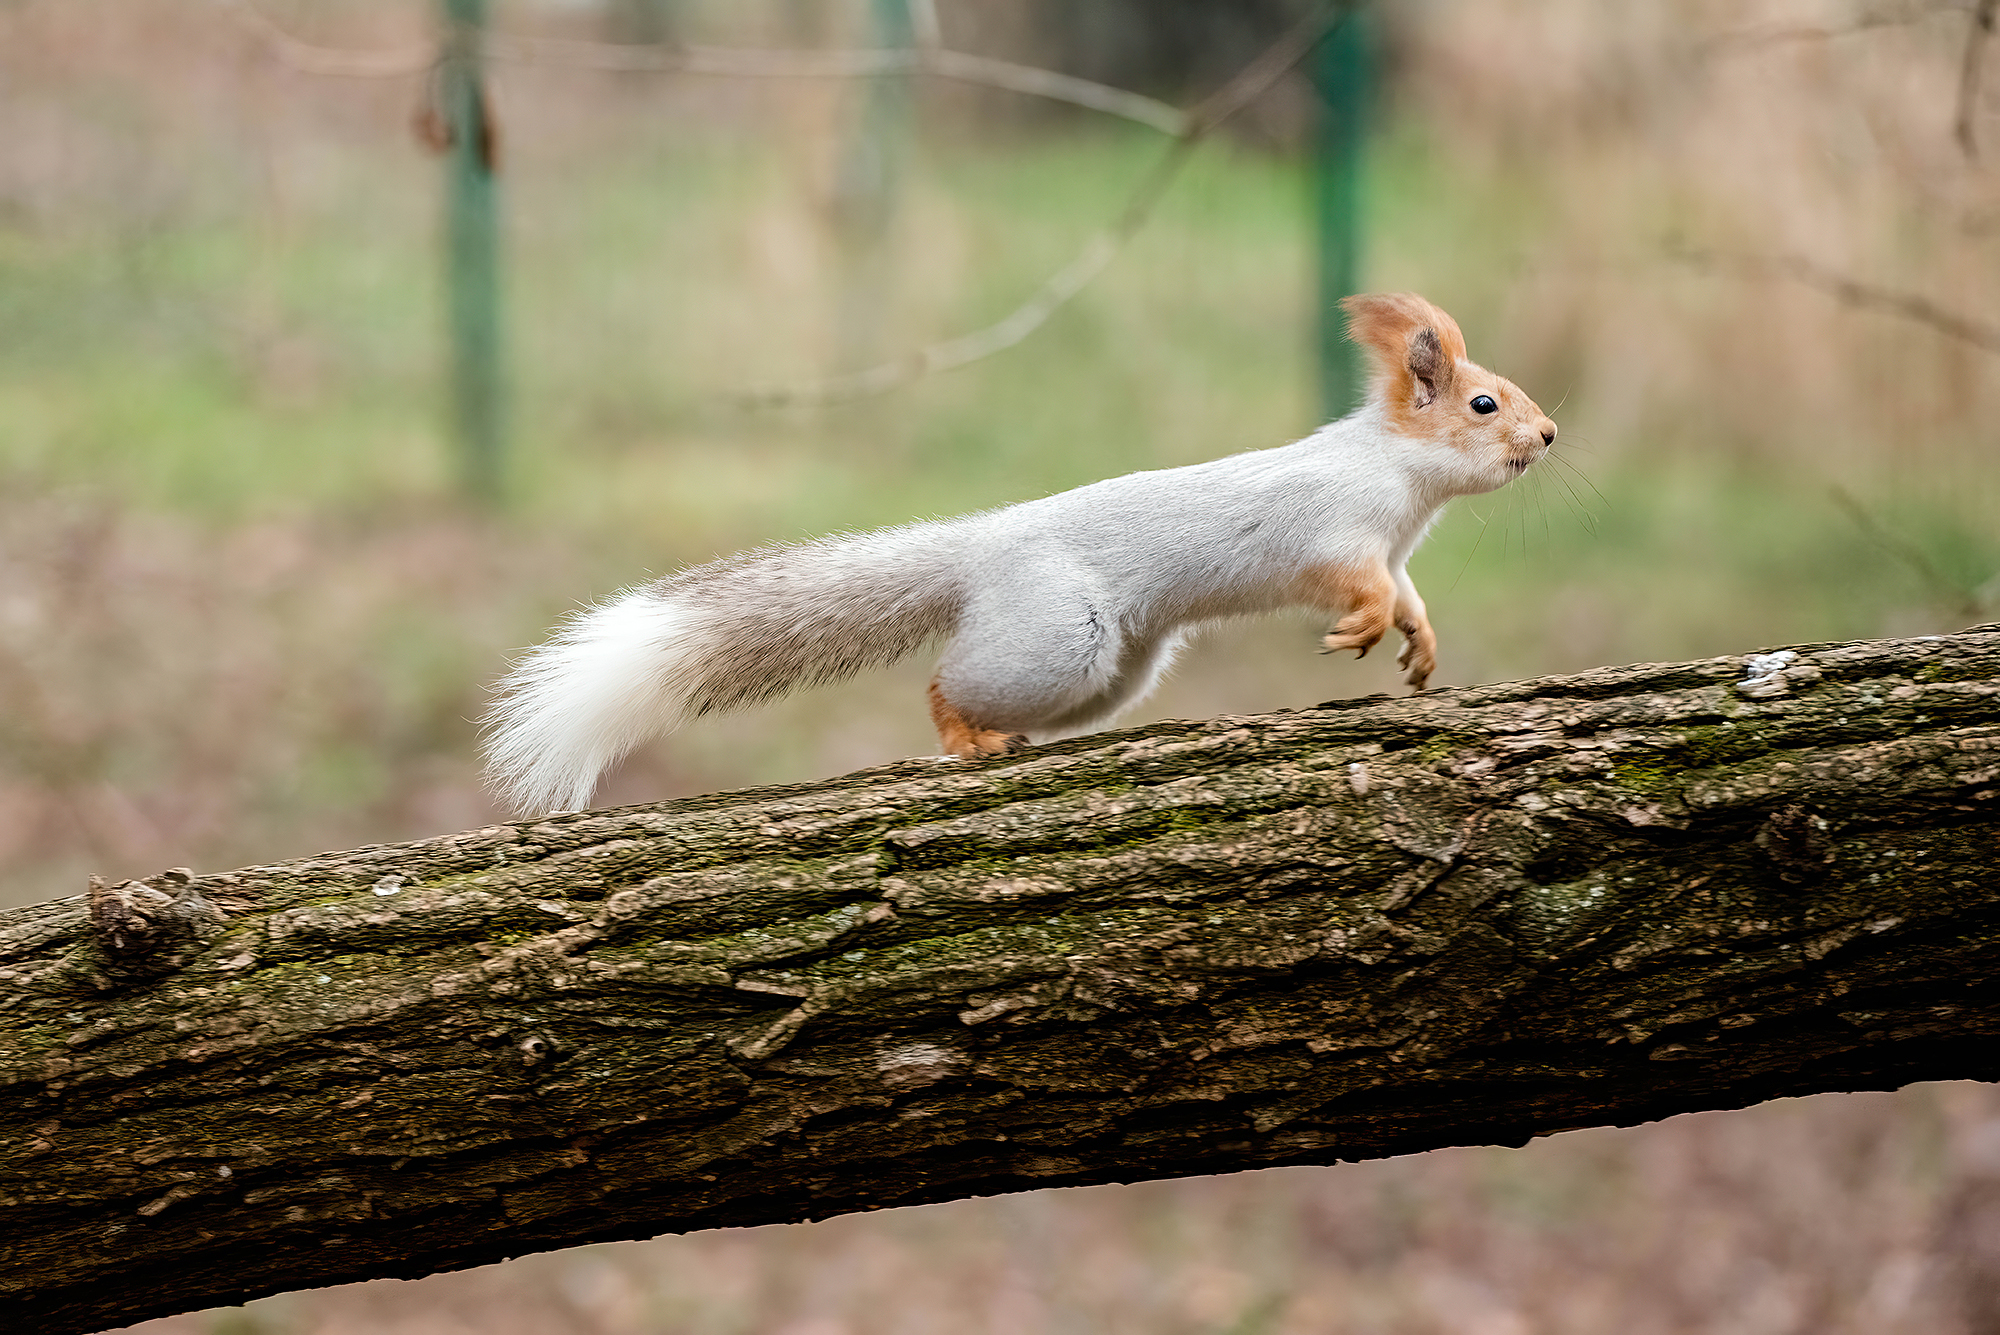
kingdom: Animalia
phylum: Chordata
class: Mammalia
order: Rodentia
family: Sciuridae
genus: Sciurus
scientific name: Sciurus vulgaris
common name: Eurasian red squirrel
